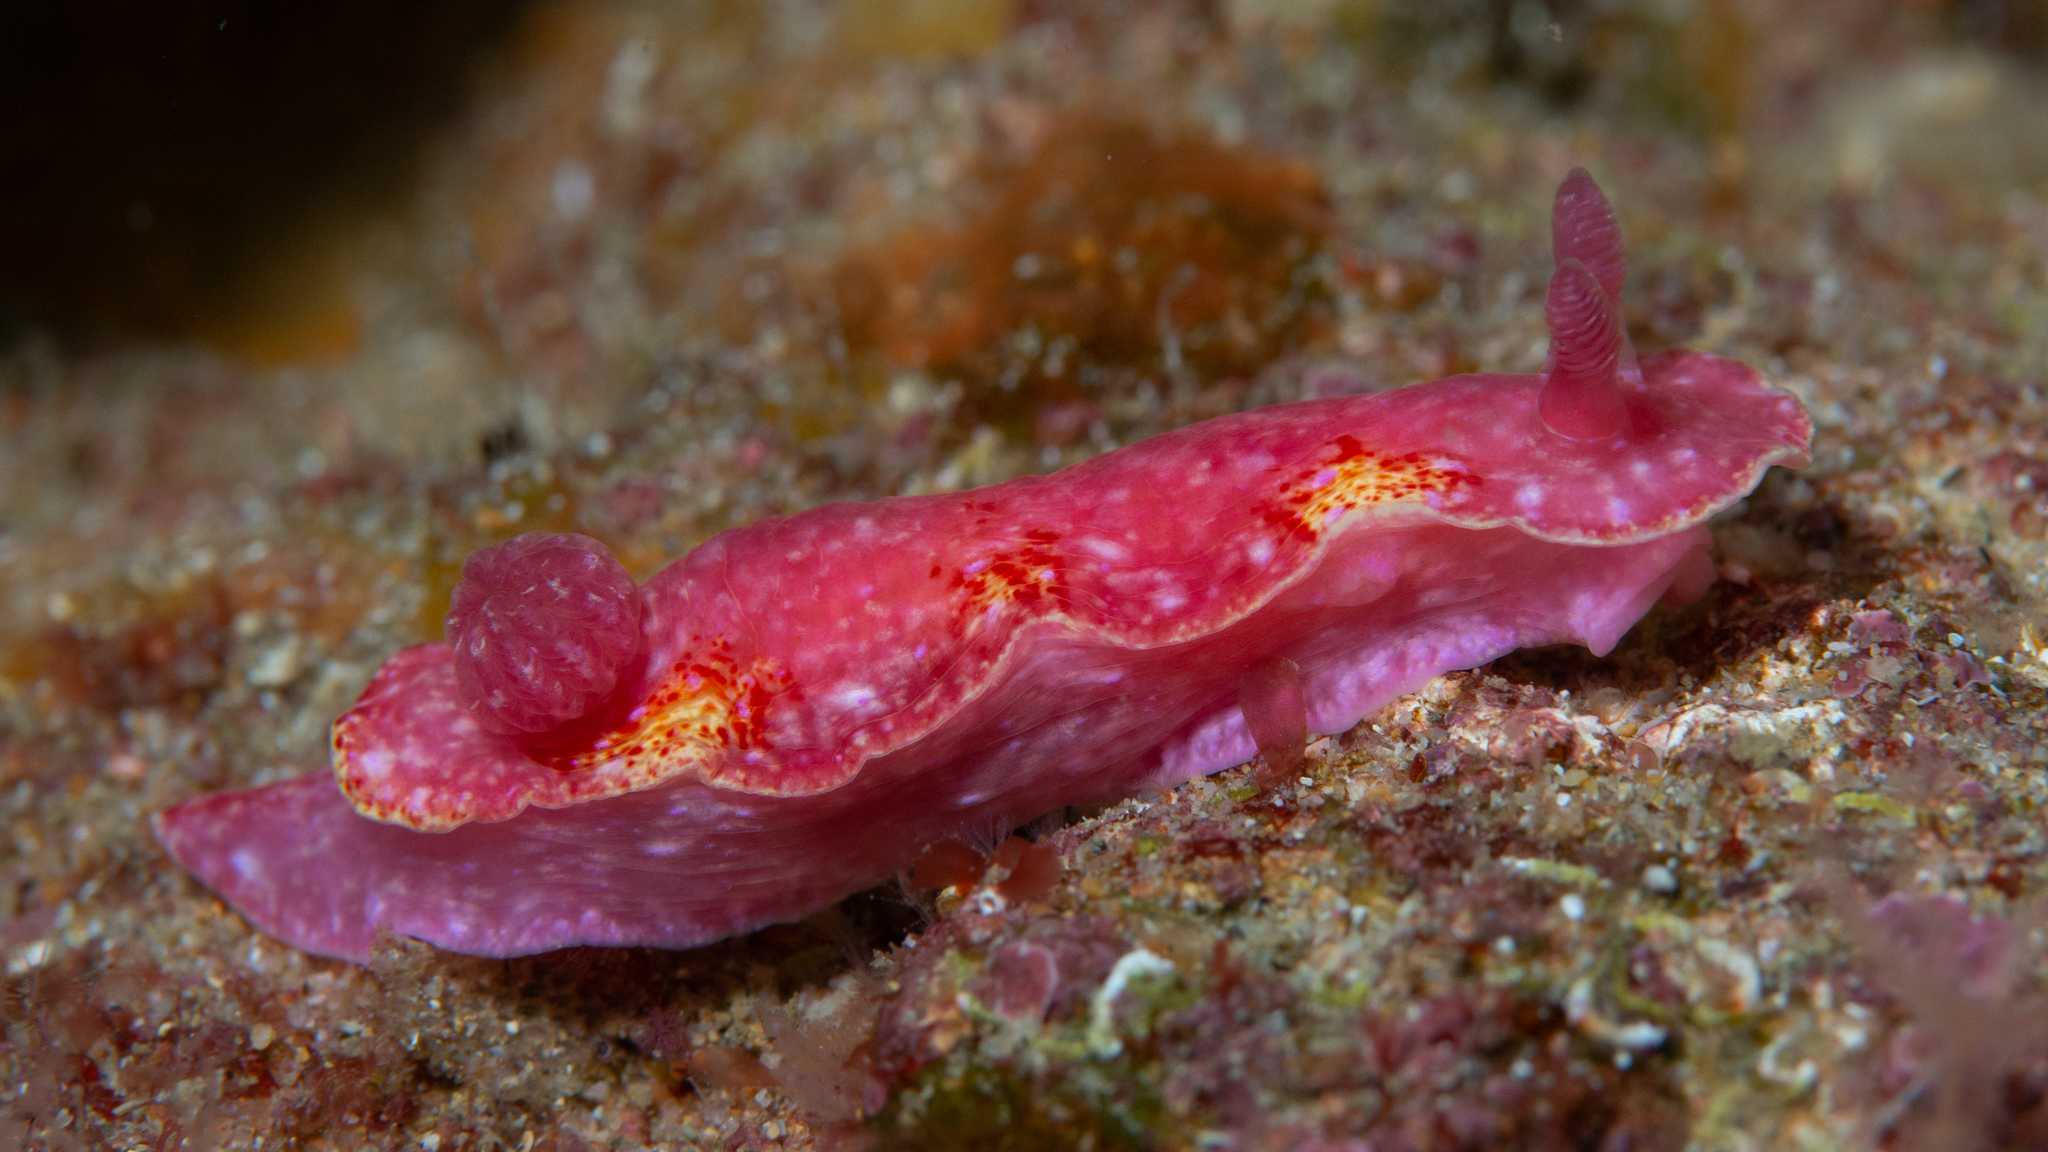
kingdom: Animalia
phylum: Mollusca
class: Gastropoda
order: Nudibranchia
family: Chromodorididae
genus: Thorunna
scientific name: Thorunna arbuta
